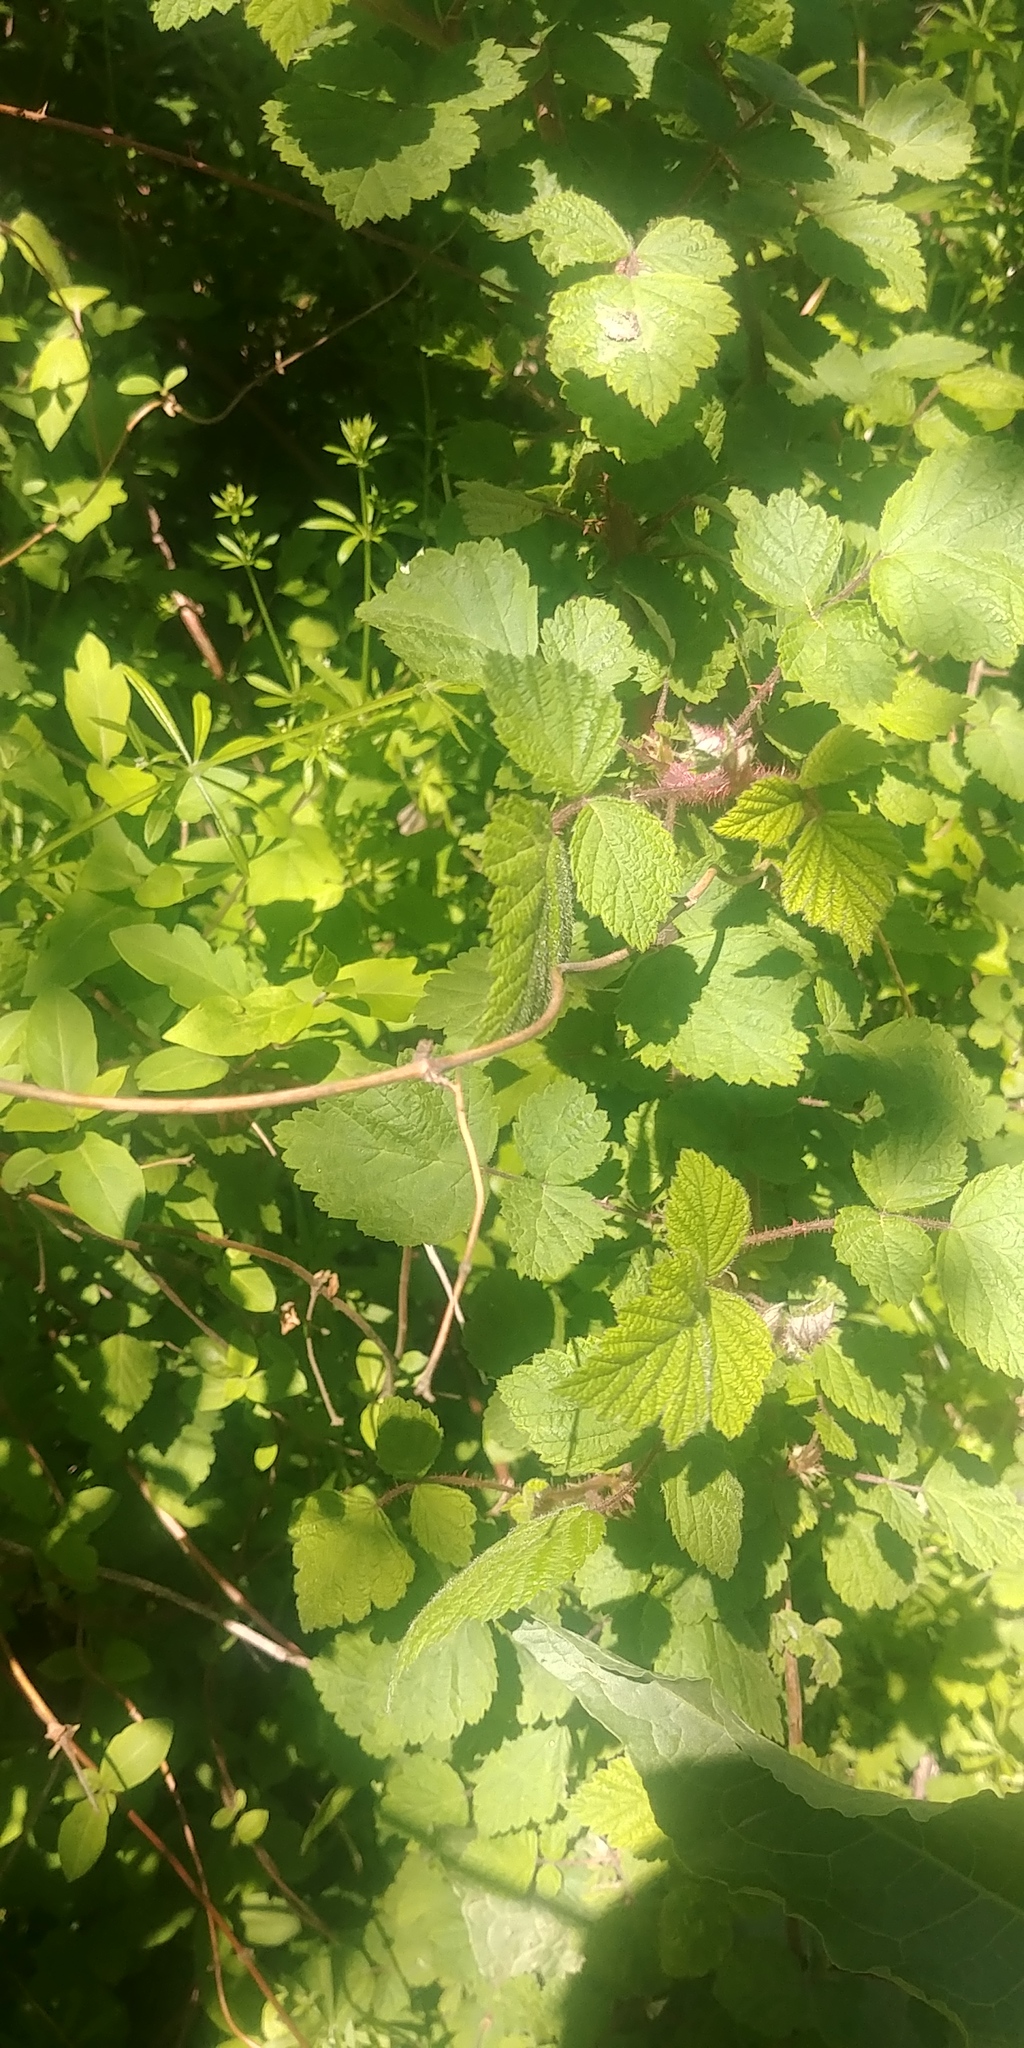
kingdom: Plantae
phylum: Tracheophyta
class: Magnoliopsida
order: Rosales
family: Rosaceae
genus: Rubus
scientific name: Rubus phoenicolasius
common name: Japanese wineberry
